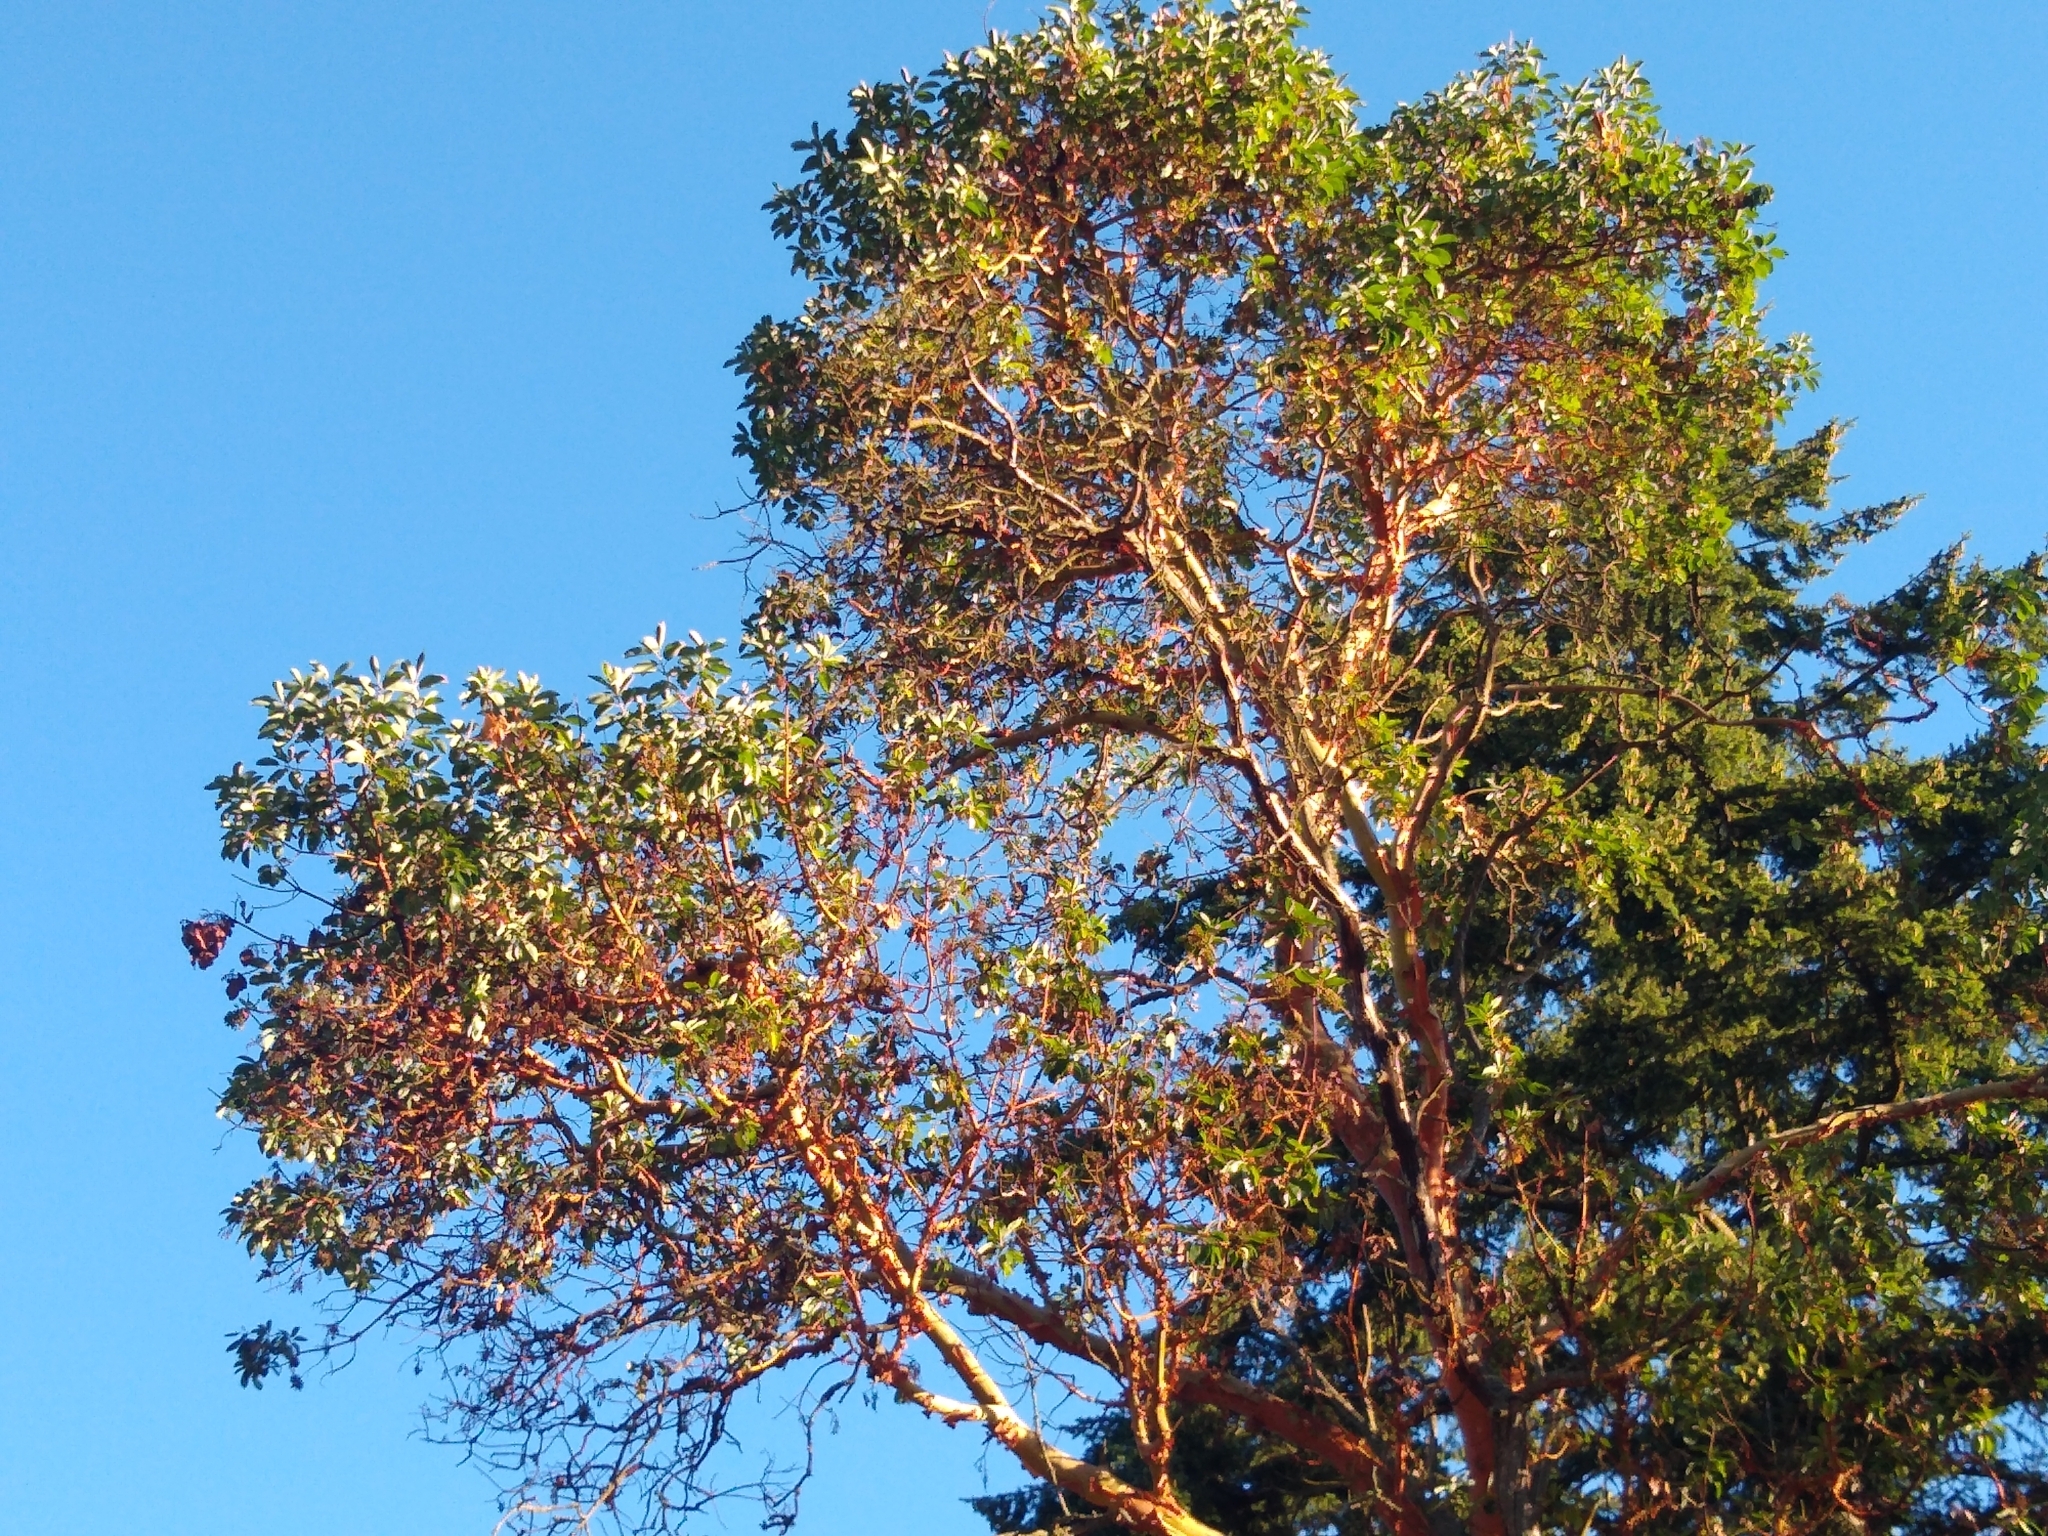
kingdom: Plantae
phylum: Tracheophyta
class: Magnoliopsida
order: Ericales
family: Ericaceae
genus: Arbutus
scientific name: Arbutus menziesii
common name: Pacific madrone
